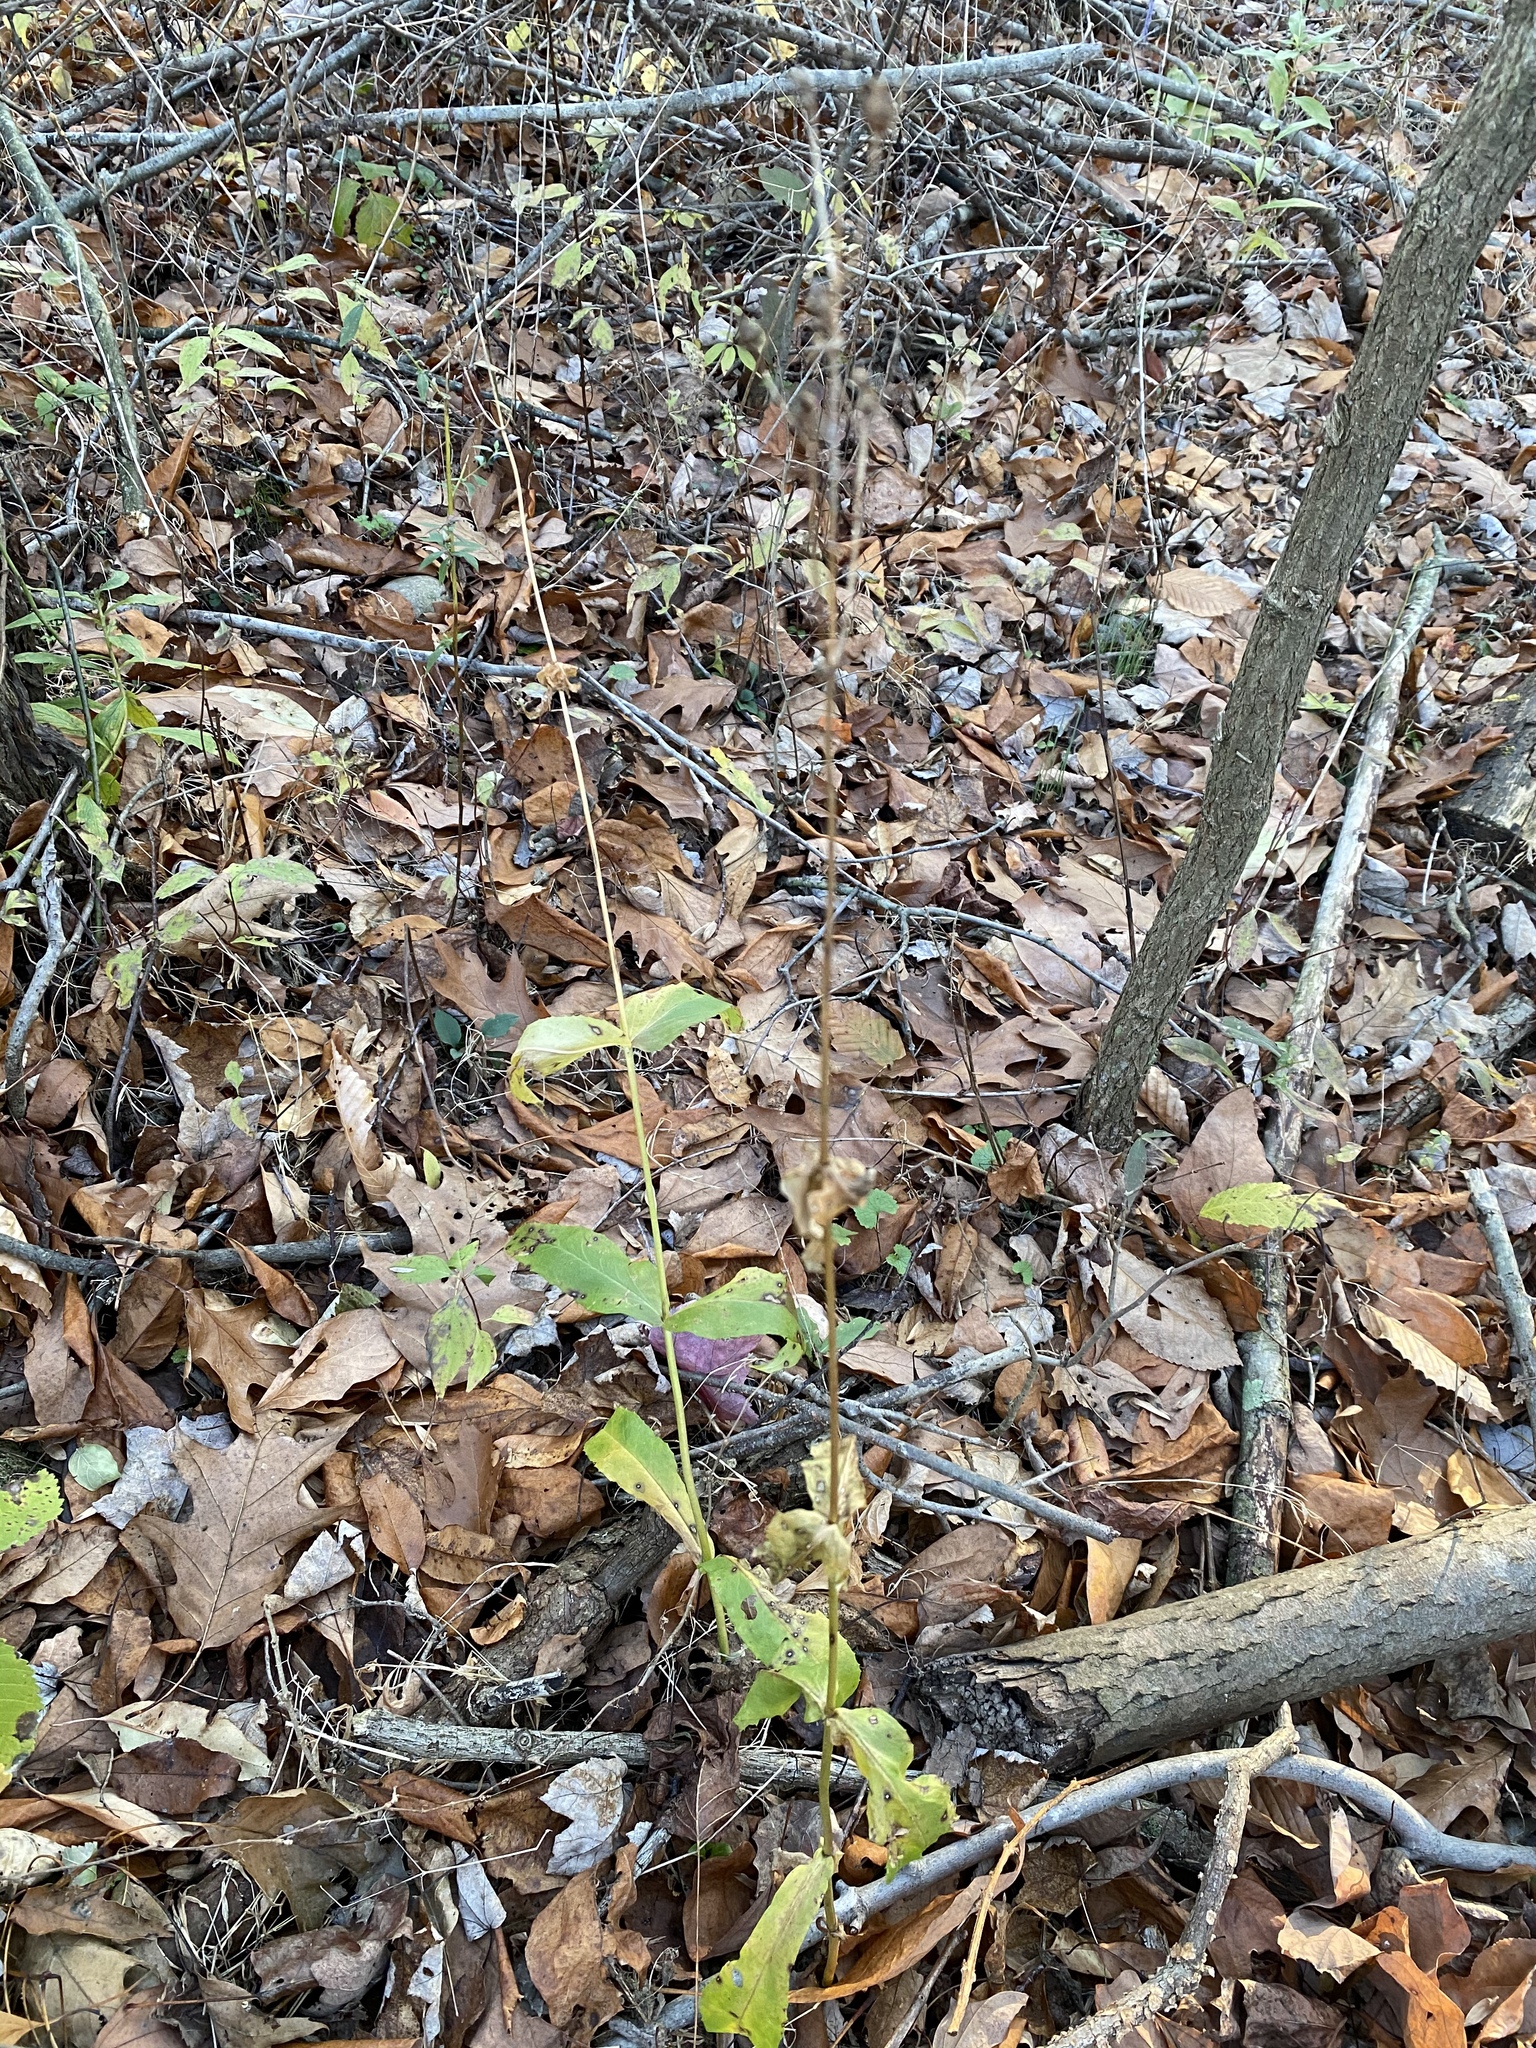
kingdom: Plantae
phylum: Tracheophyta
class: Magnoliopsida
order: Lamiales
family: Plantaginaceae
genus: Penstemon
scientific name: Penstemon digitalis
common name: Foxglove beardtongue
